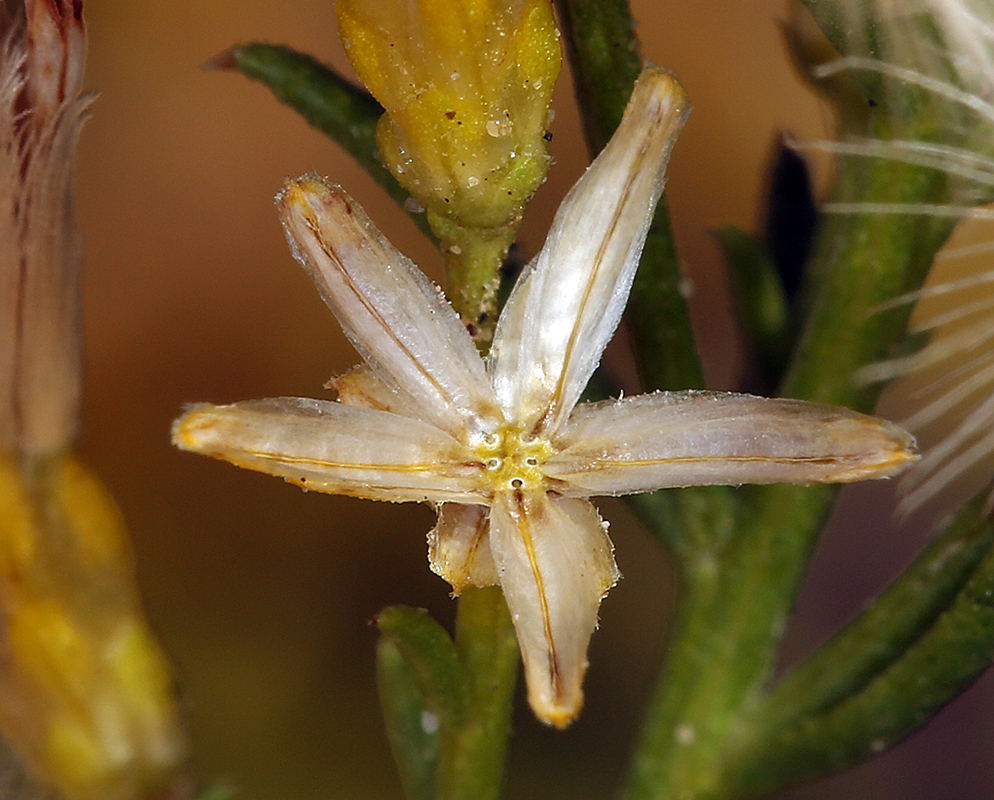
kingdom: Plantae
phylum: Tracheophyta
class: Magnoliopsida
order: Asterales
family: Asteraceae
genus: Ericameria
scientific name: Ericameria paniculata
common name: Punctate rabbitbrush
